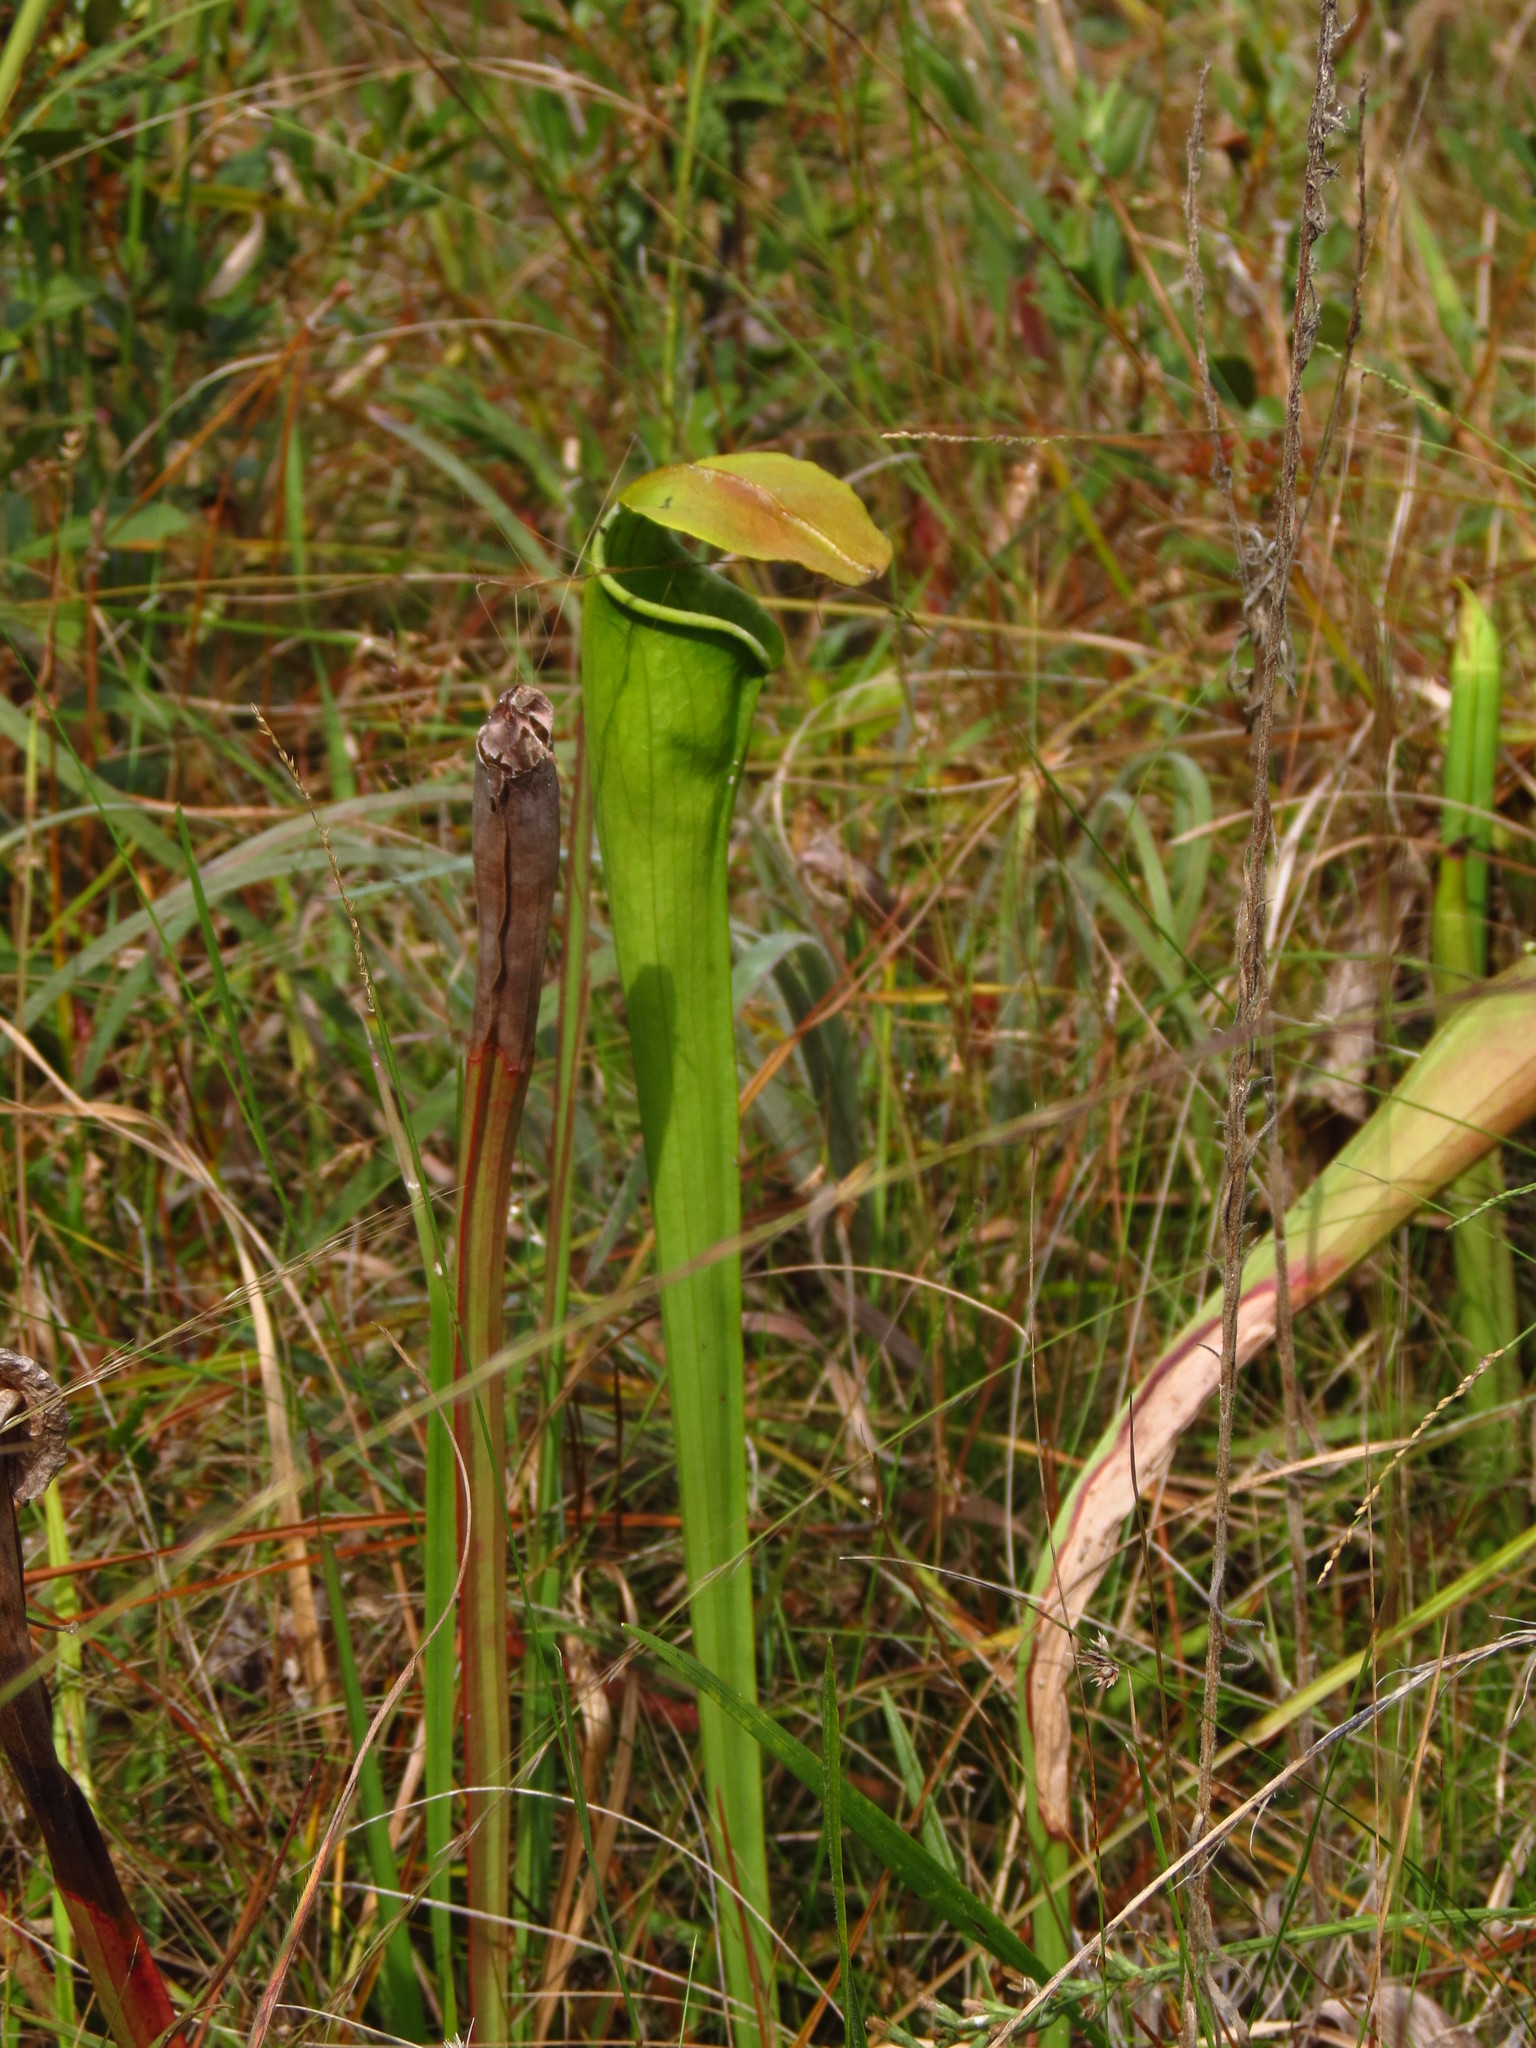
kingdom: Plantae
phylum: Tracheophyta
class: Magnoliopsida
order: Ericales
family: Sarraceniaceae
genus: Sarracenia
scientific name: Sarracenia alata
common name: Yellow trumpets
